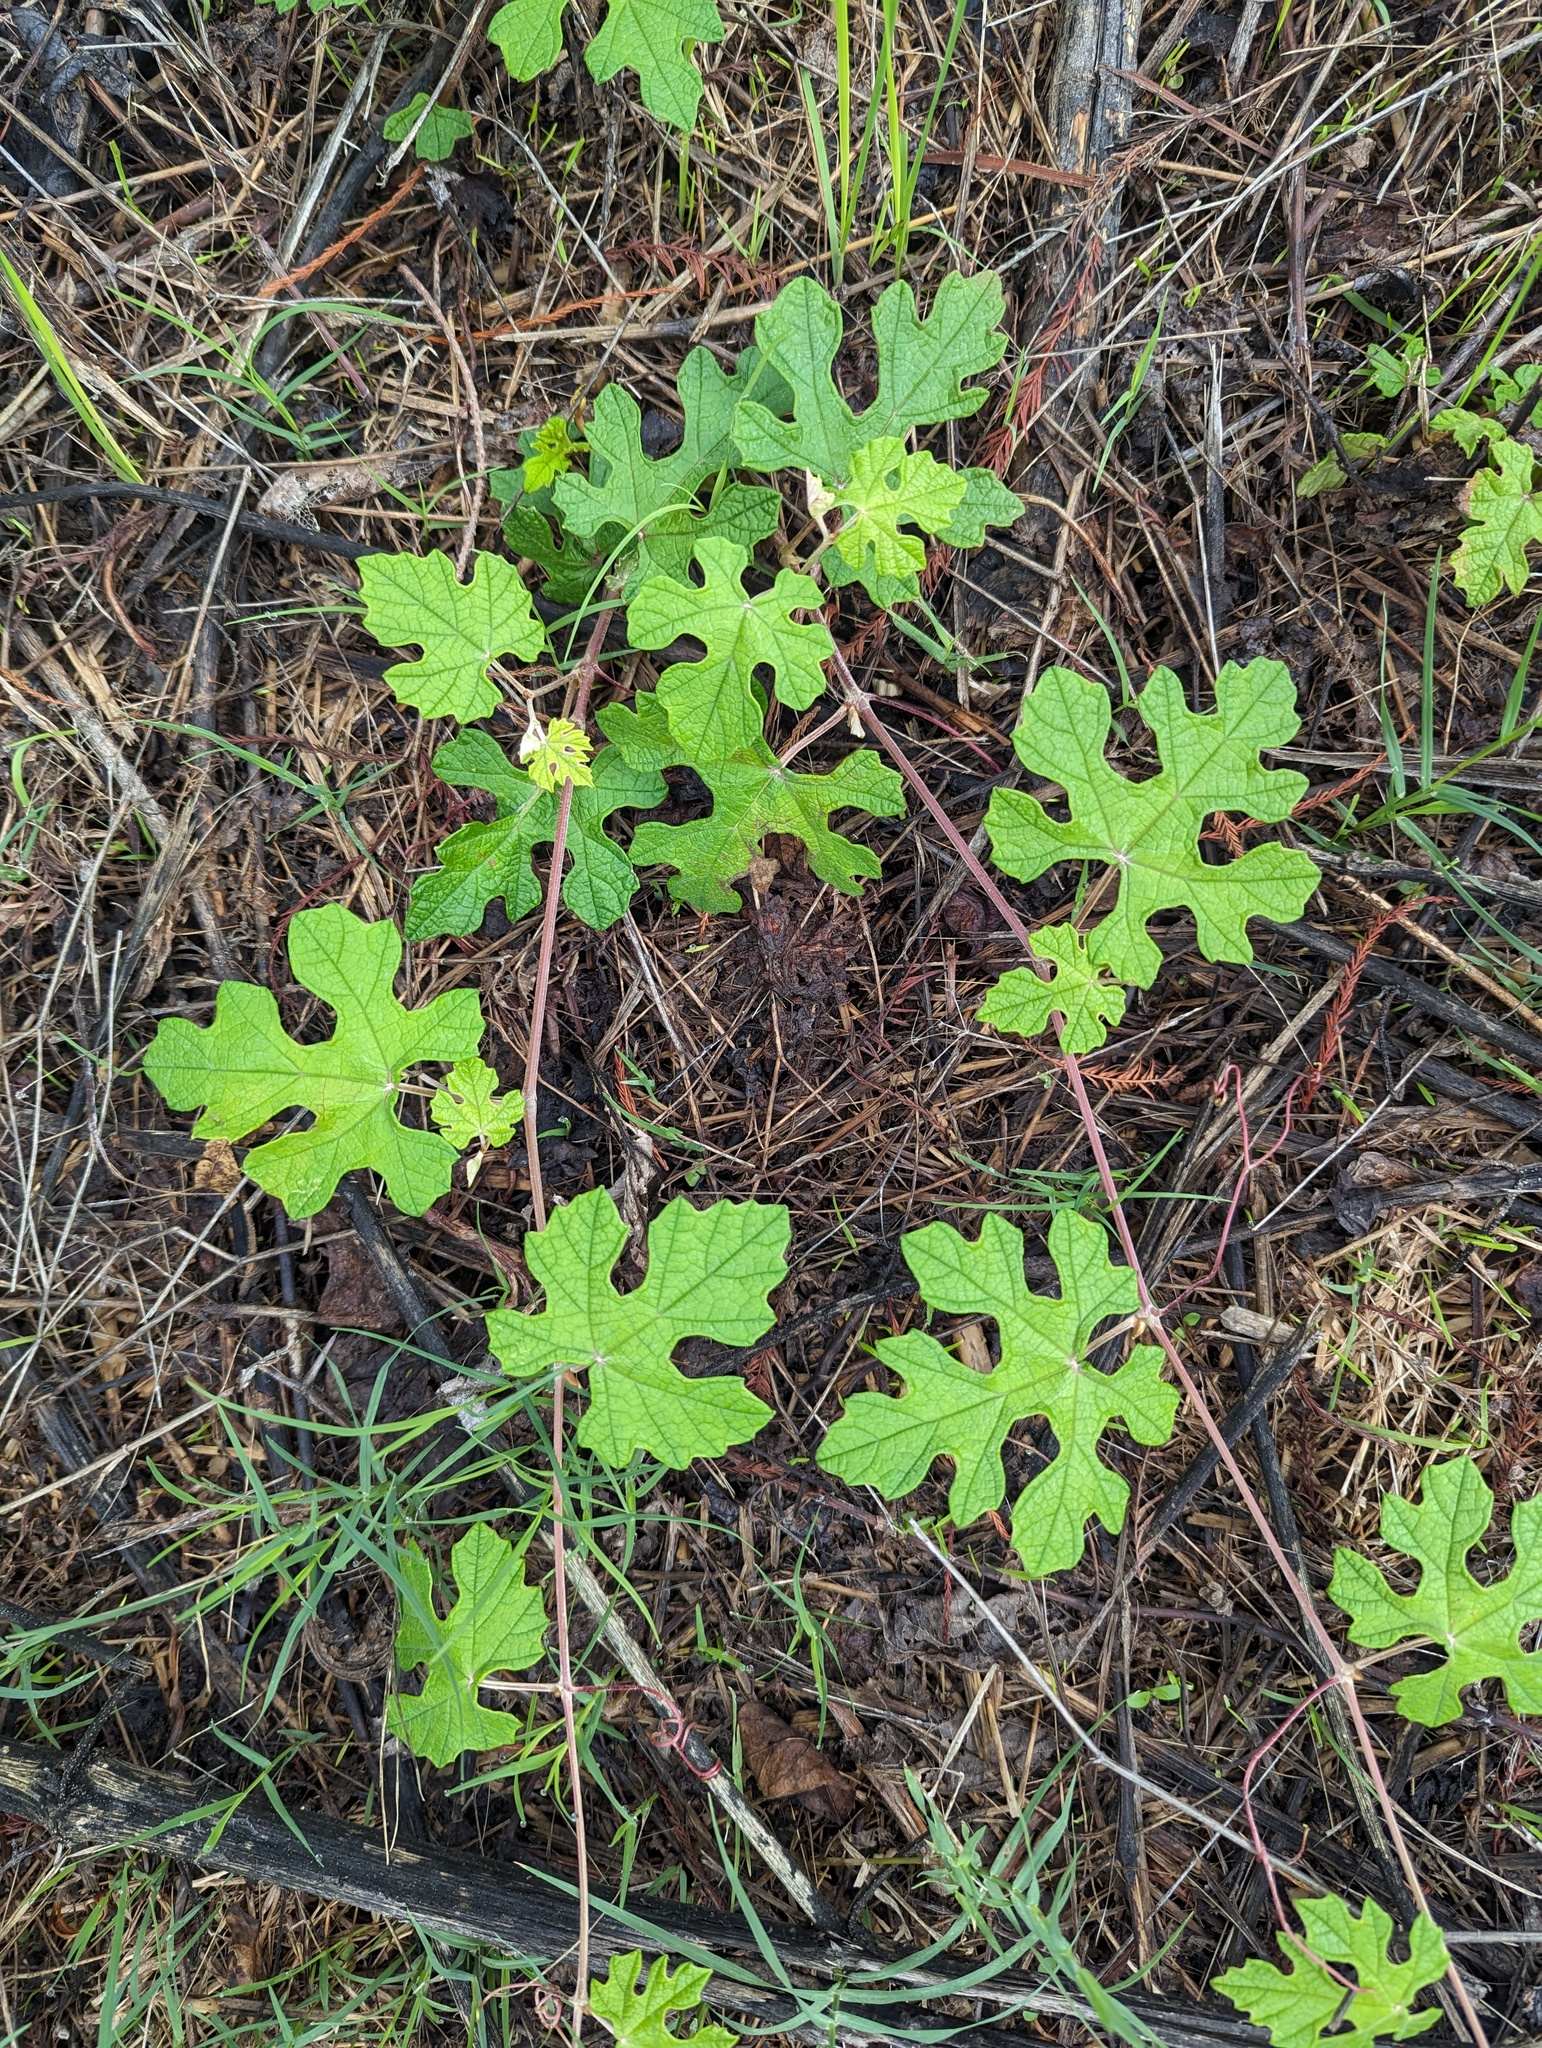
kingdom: Plantae
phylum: Tracheophyta
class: Magnoliopsida
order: Vitales
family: Vitaceae
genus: Vitis
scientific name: Vitis mustangensis
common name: Mustang grape
